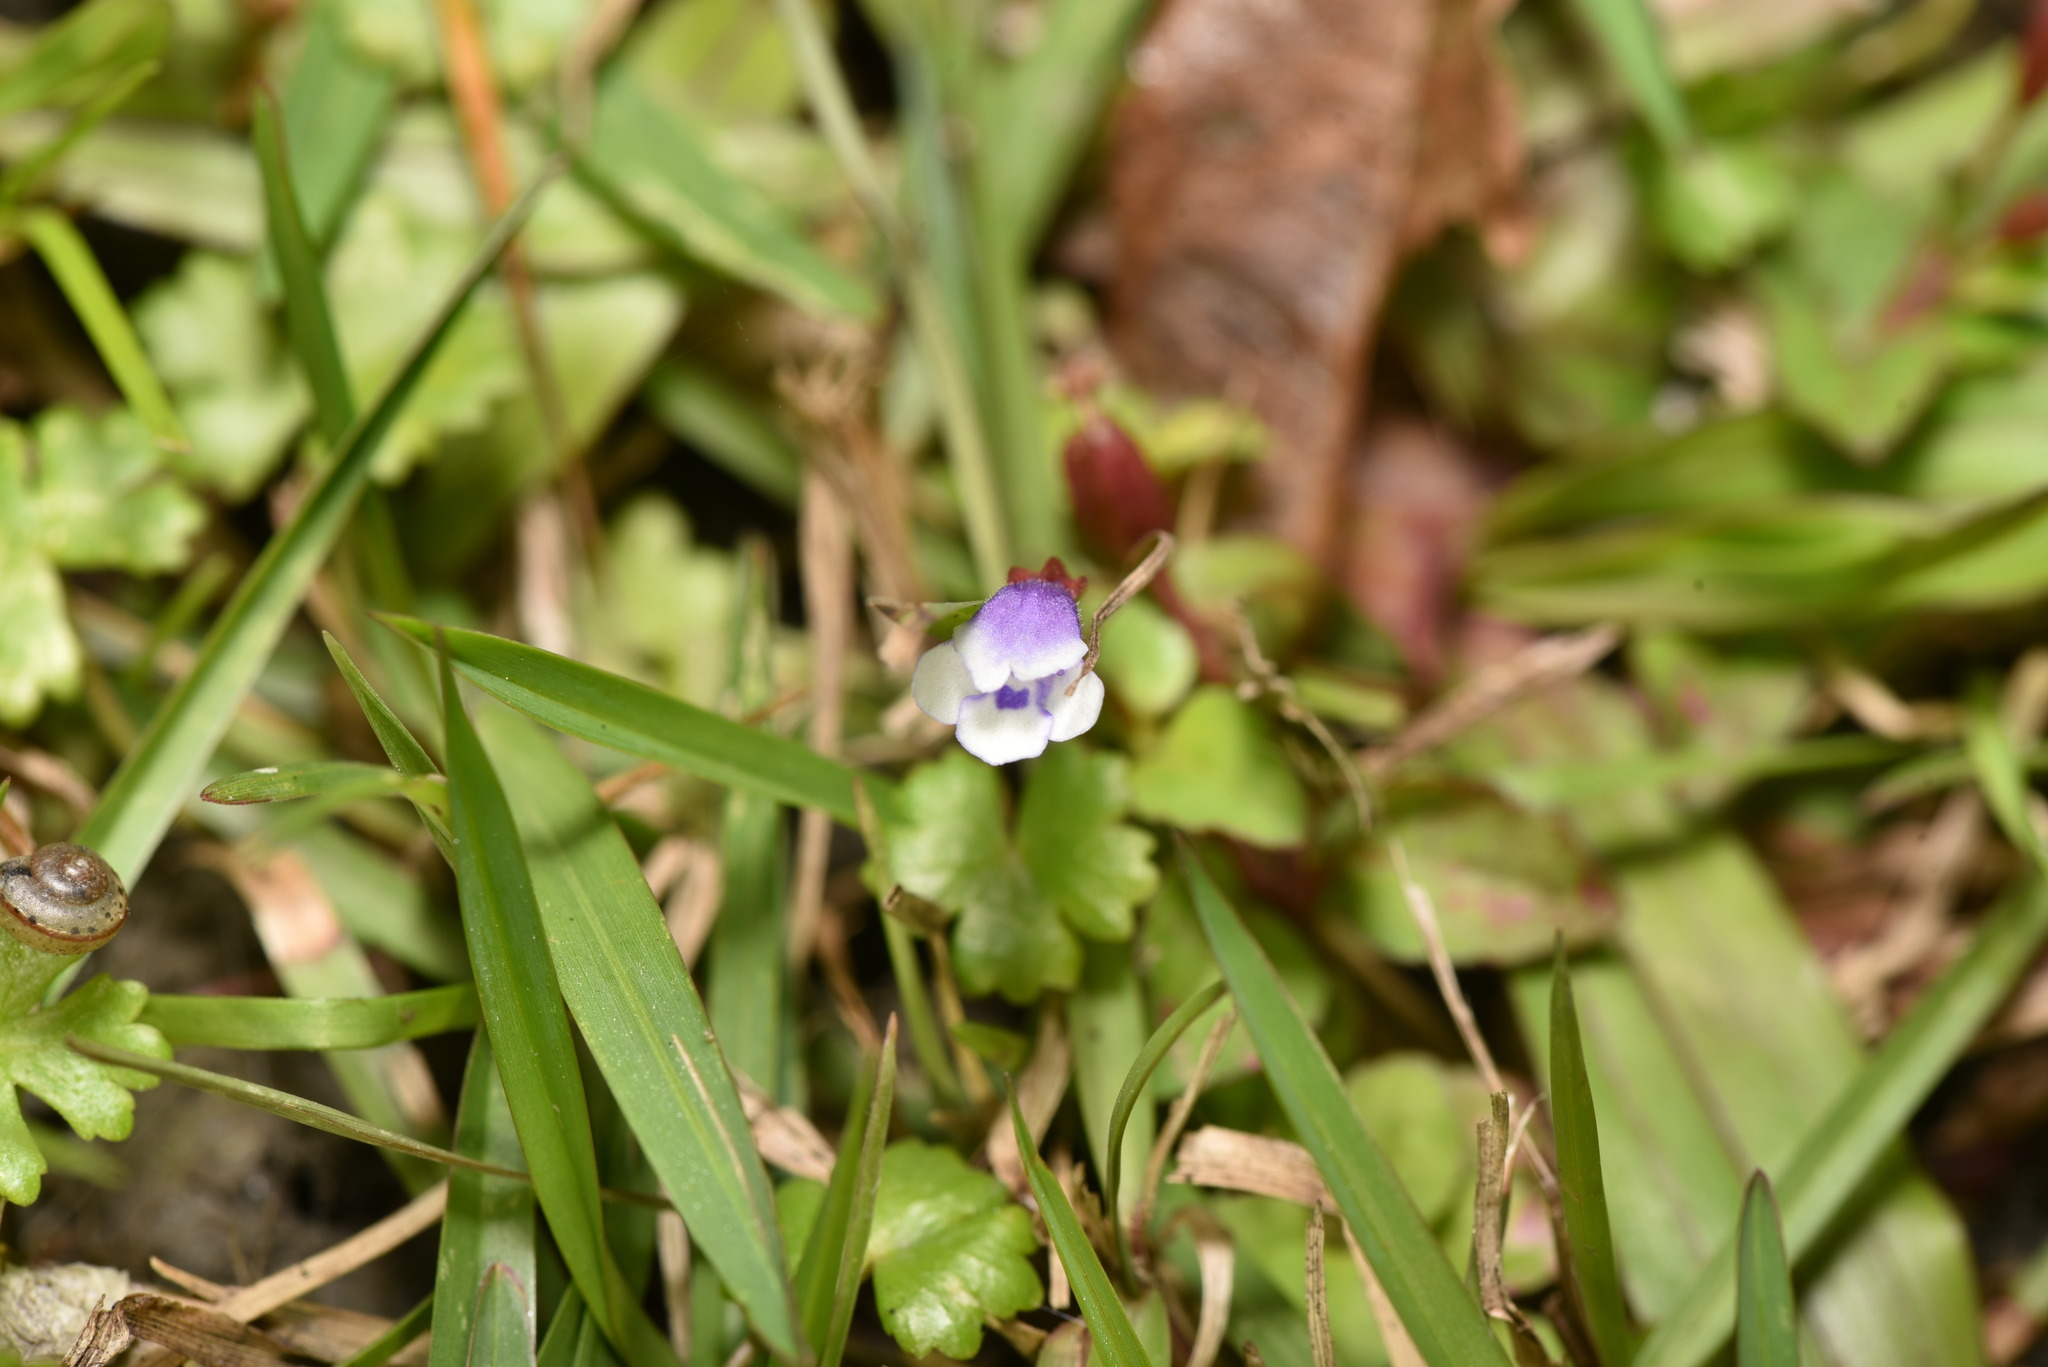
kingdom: Plantae
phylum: Tracheophyta
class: Magnoliopsida
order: Lamiales
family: Linderniaceae
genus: Torenia
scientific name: Torenia crustacea
